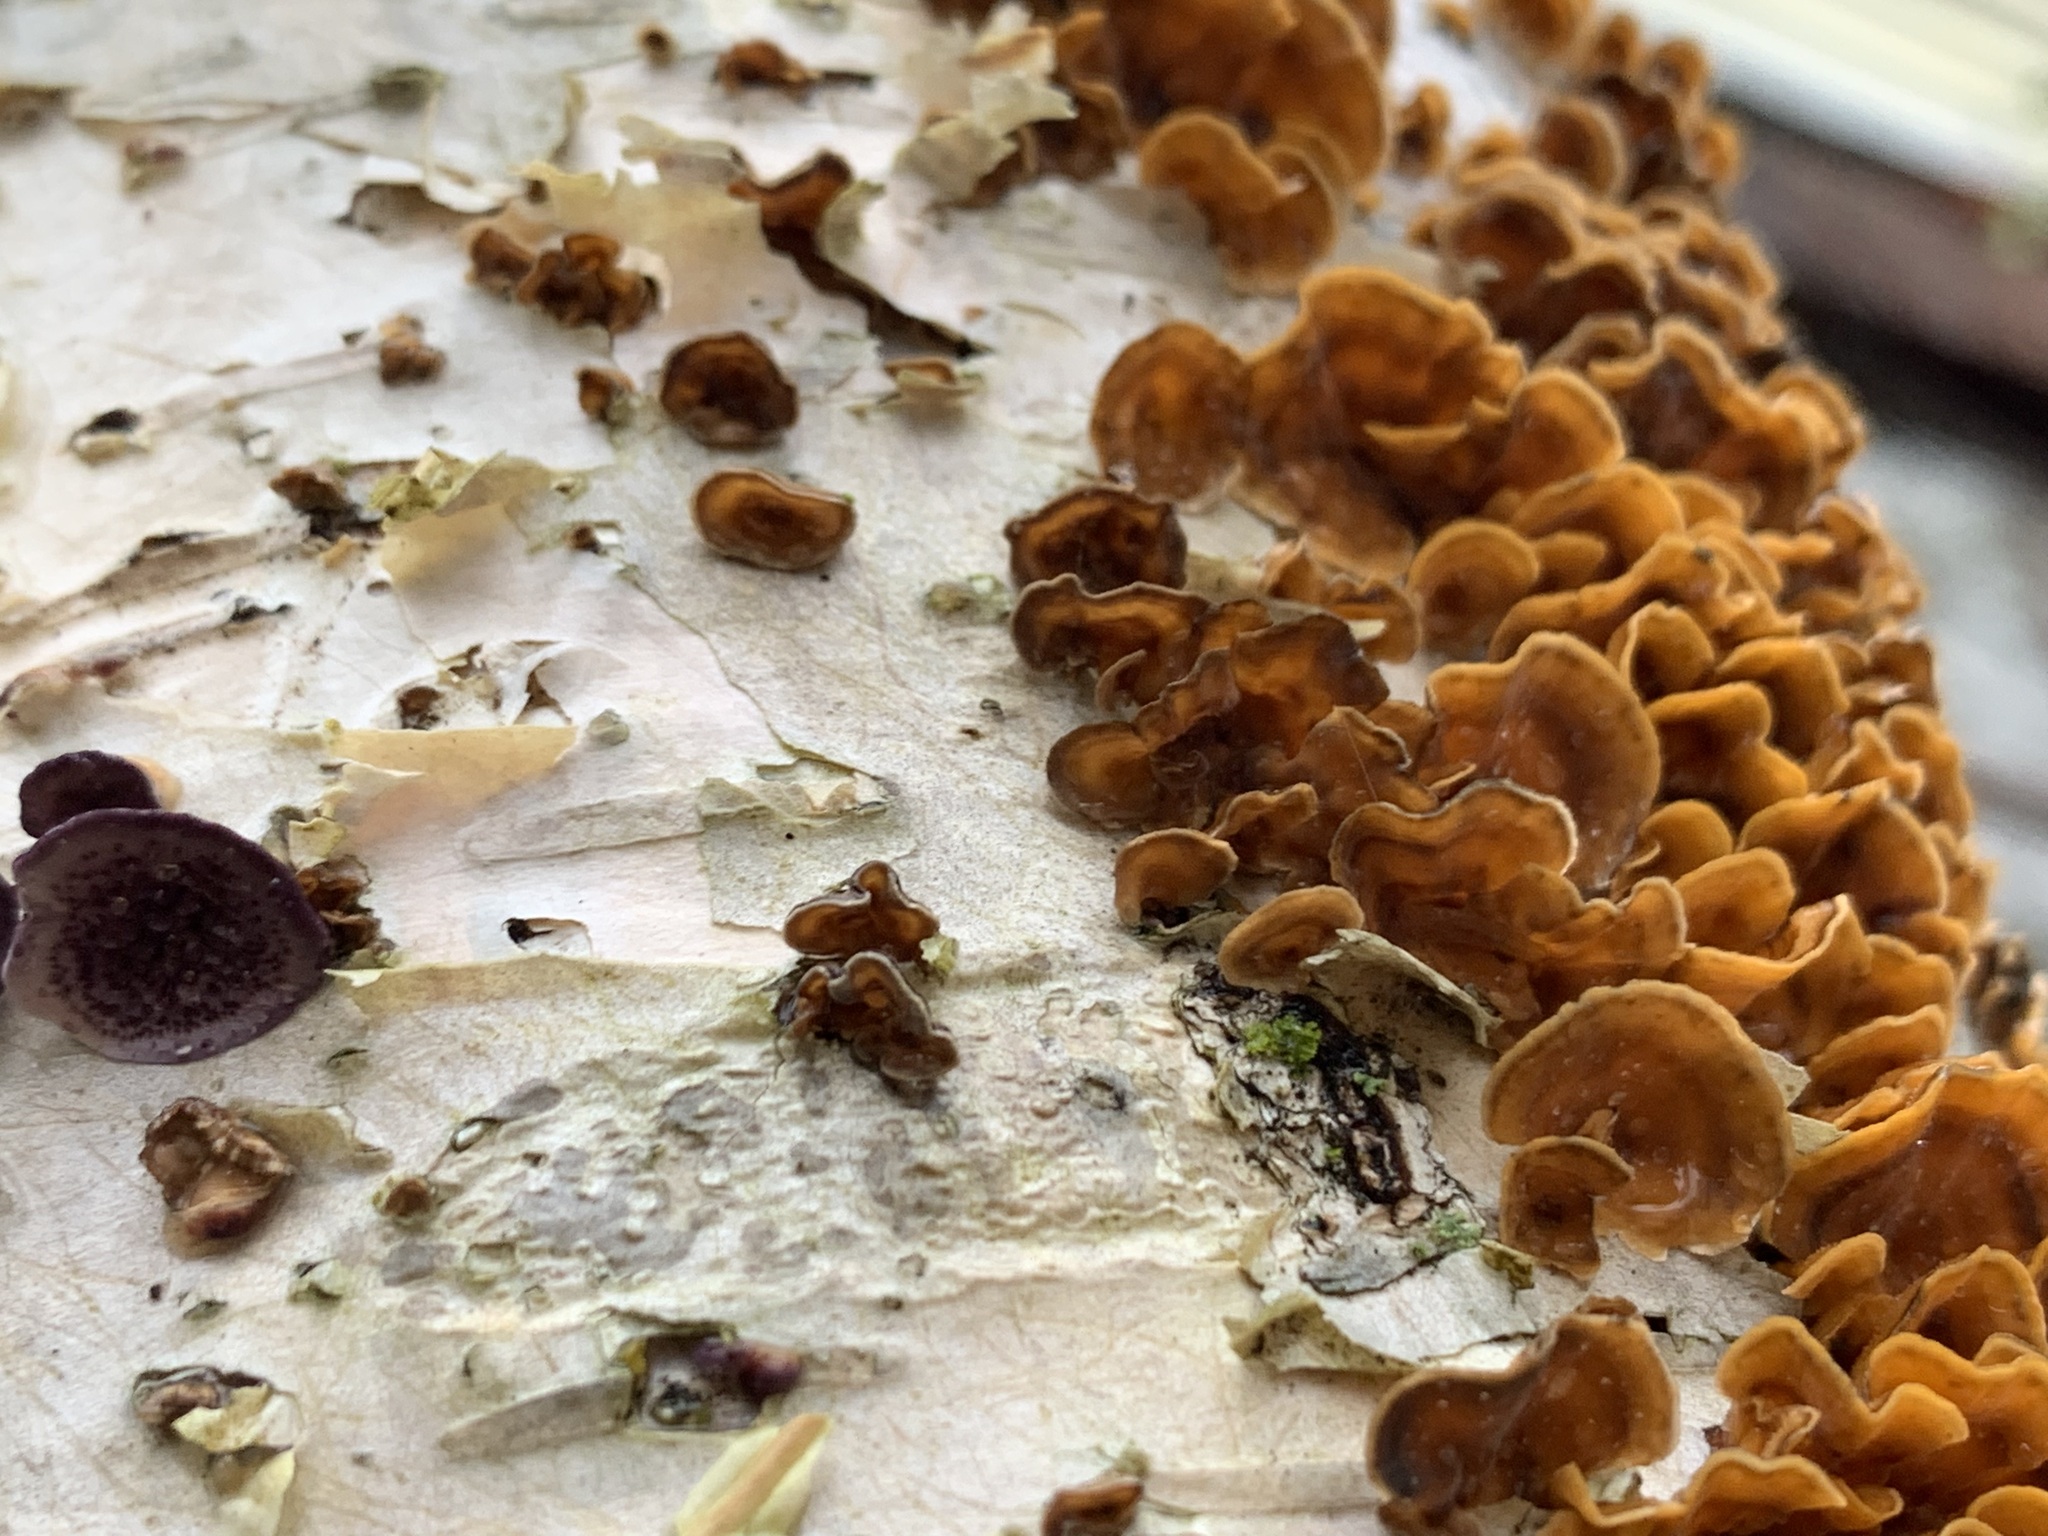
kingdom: Fungi
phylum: Basidiomycota
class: Agaricomycetes
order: Russulales
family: Stereaceae
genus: Stereum
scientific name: Stereum complicatum
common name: Crowded parchment
